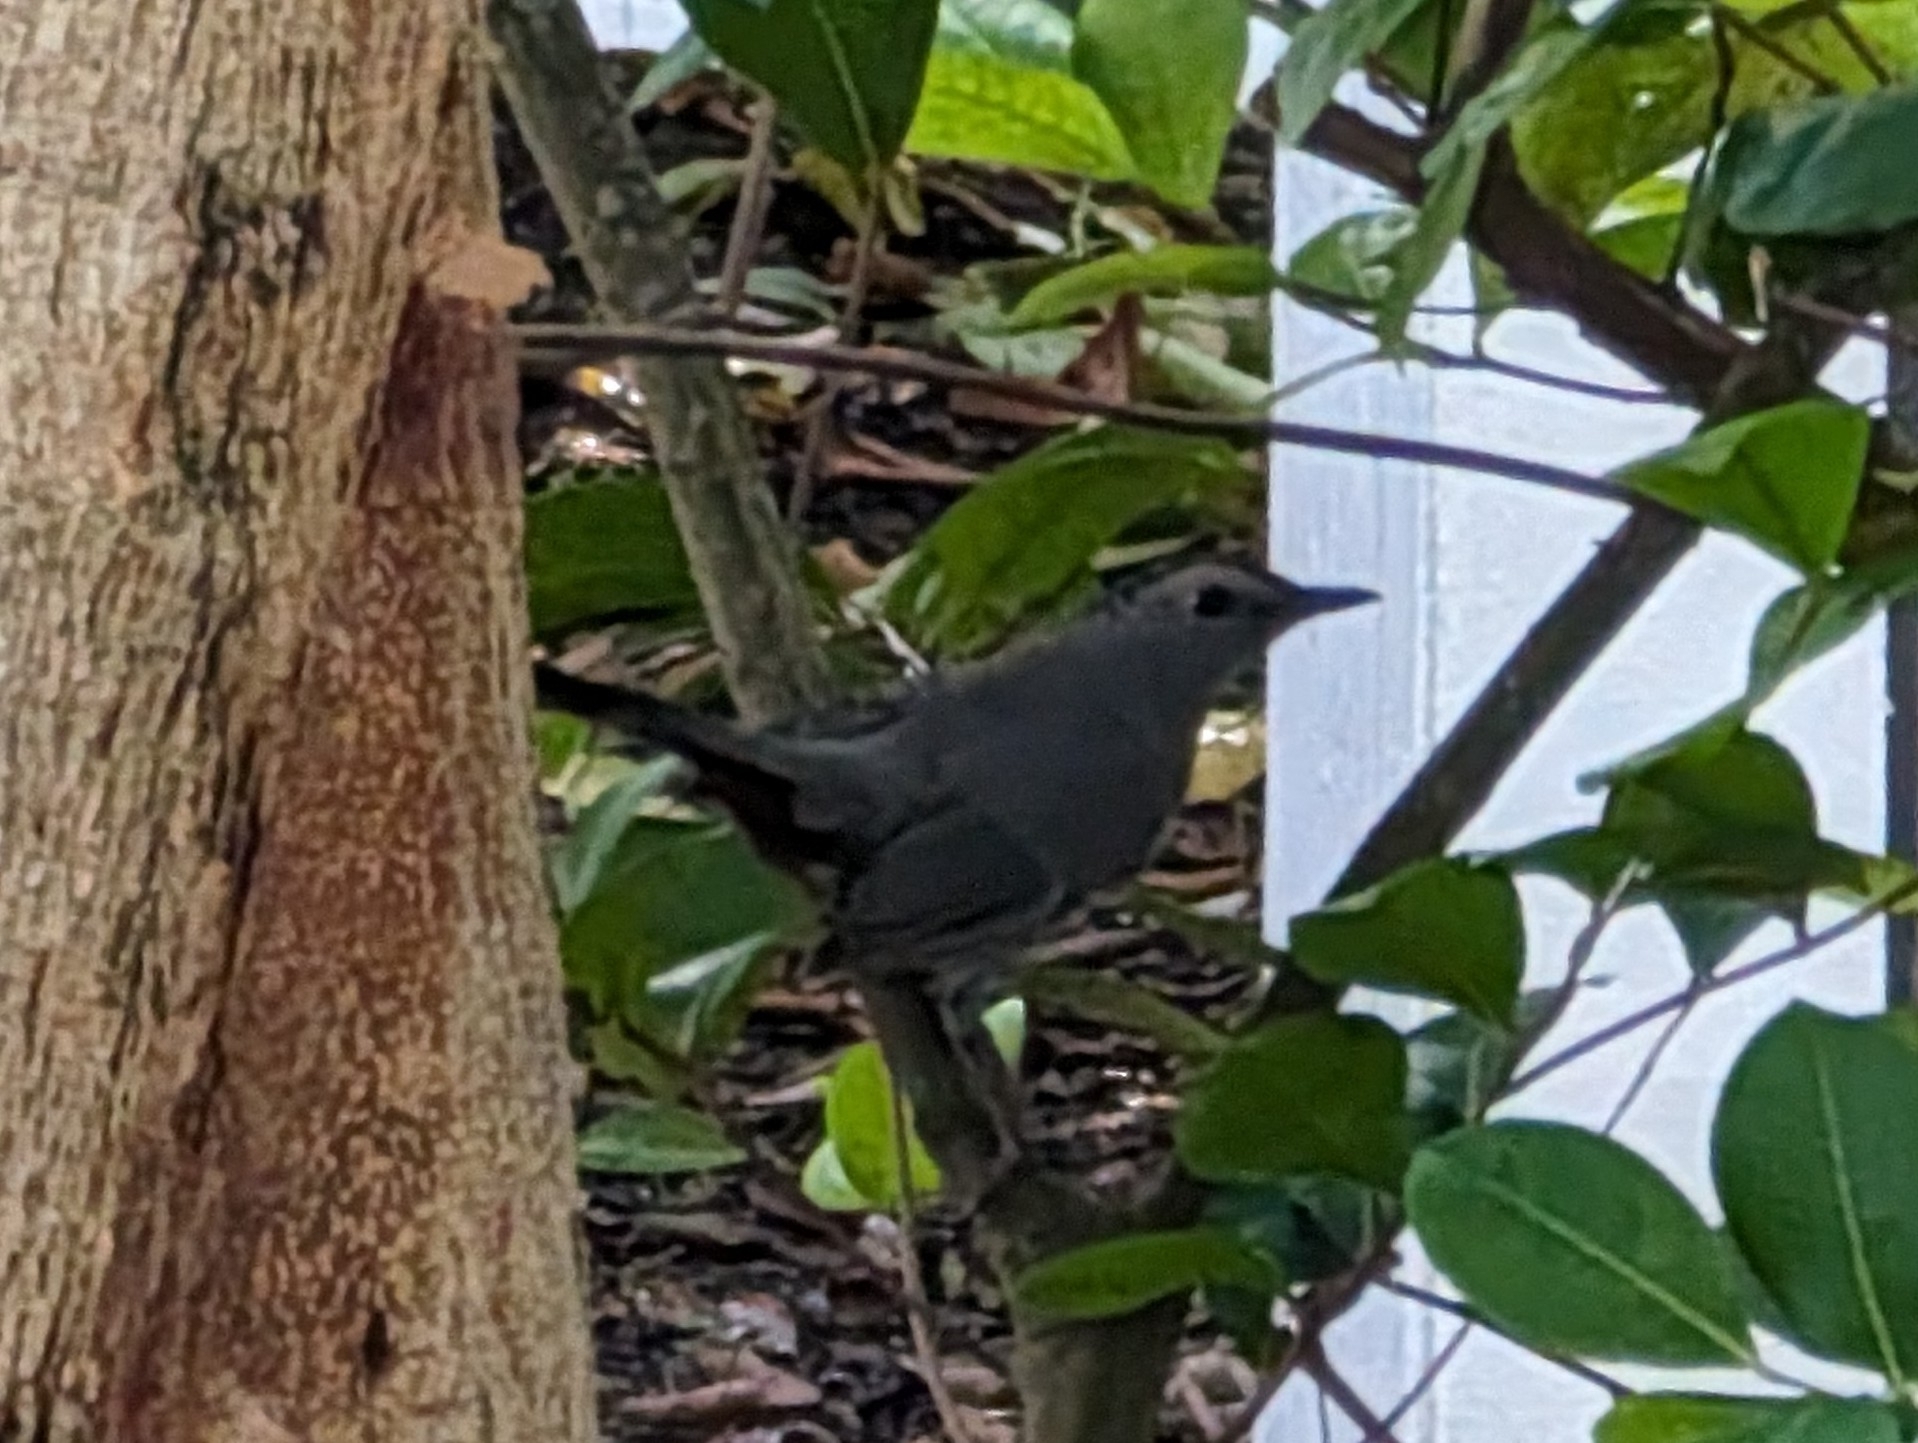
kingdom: Animalia
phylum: Chordata
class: Aves
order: Passeriformes
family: Mimidae
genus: Dumetella
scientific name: Dumetella carolinensis
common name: Gray catbird
